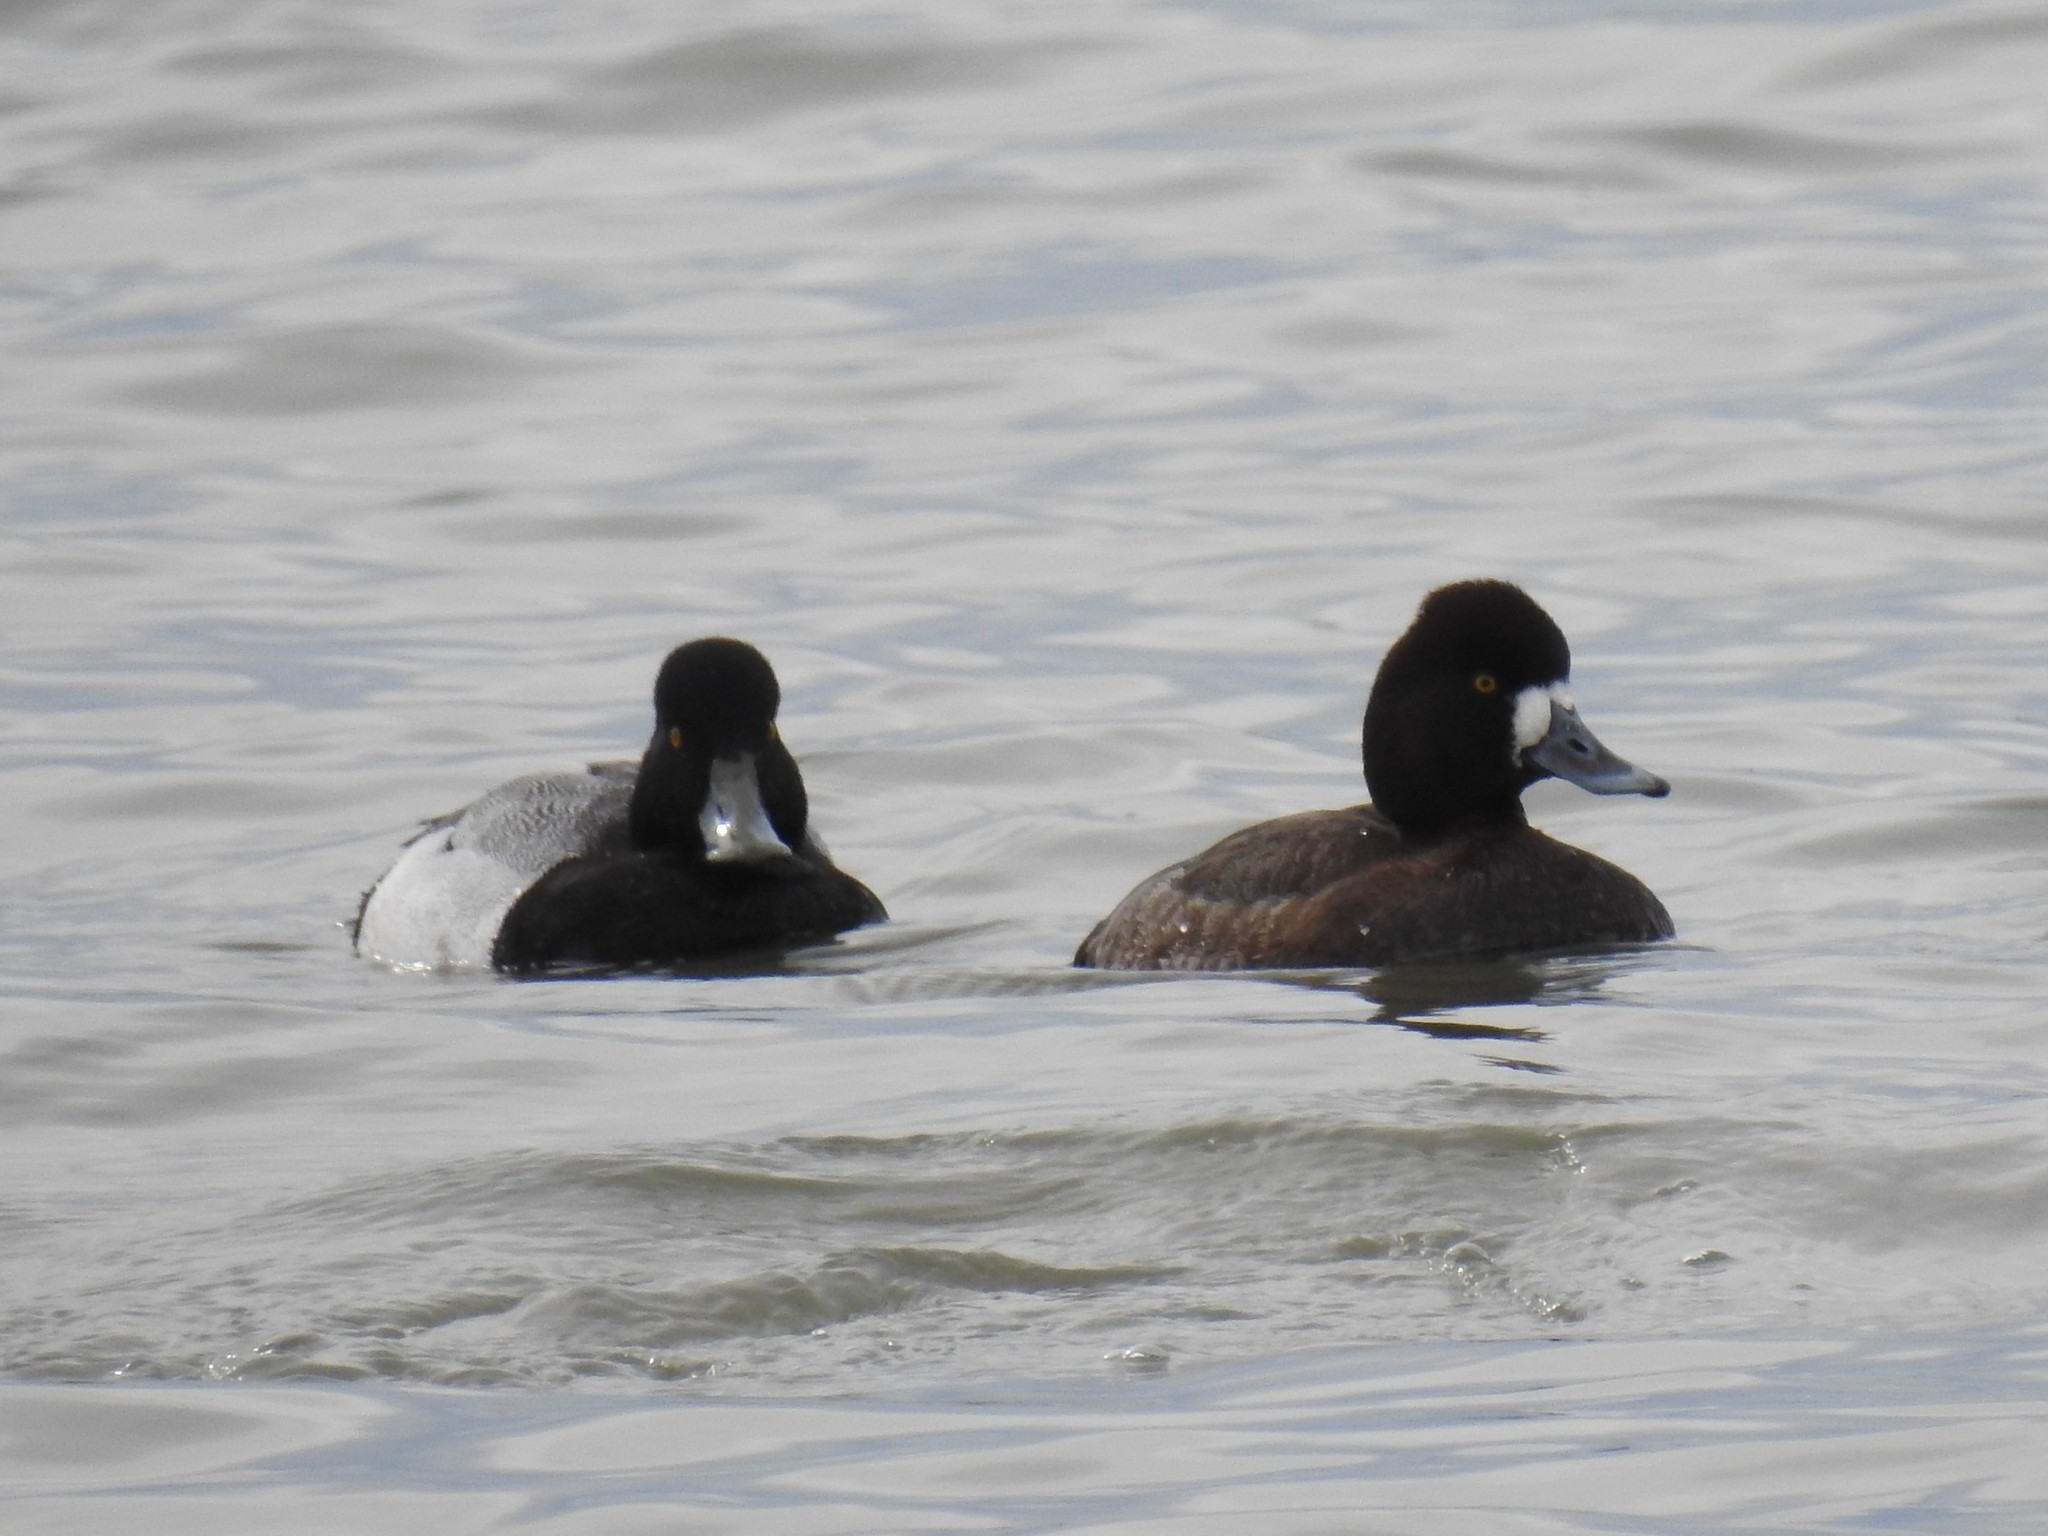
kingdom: Animalia
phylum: Chordata
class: Aves
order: Anseriformes
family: Anatidae
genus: Aythya
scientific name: Aythya marila
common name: Greater scaup
